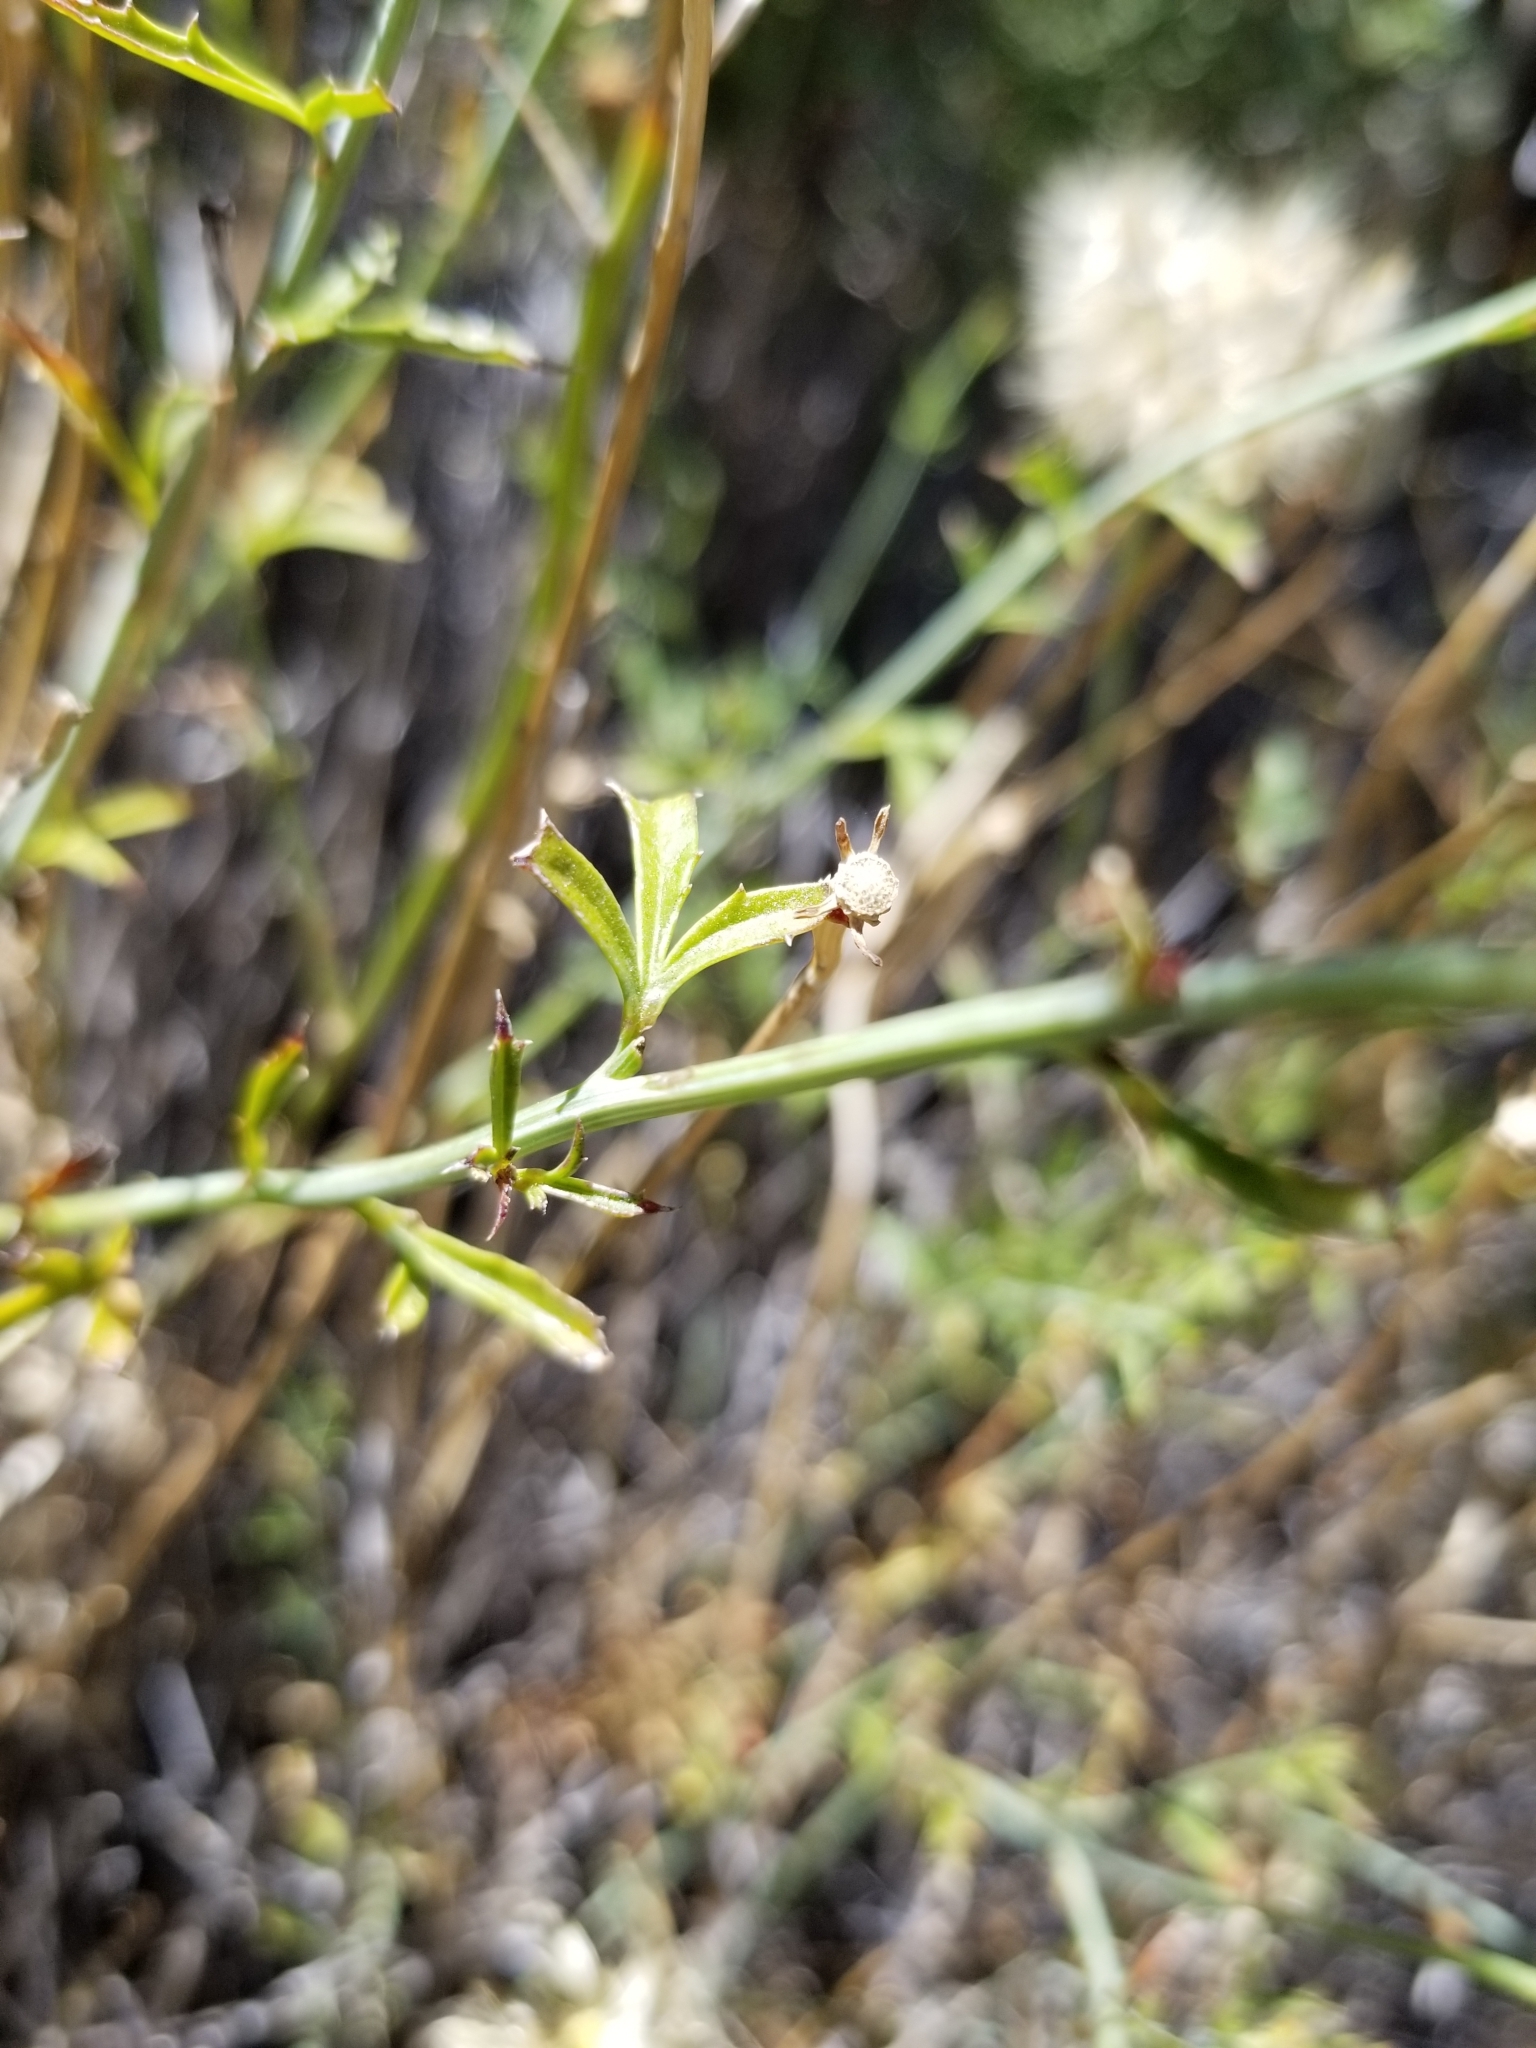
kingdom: Plantae
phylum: Tracheophyta
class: Magnoliopsida
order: Asterales
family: Asteraceae
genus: Adenophyllum
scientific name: Adenophyllum porophylloides
